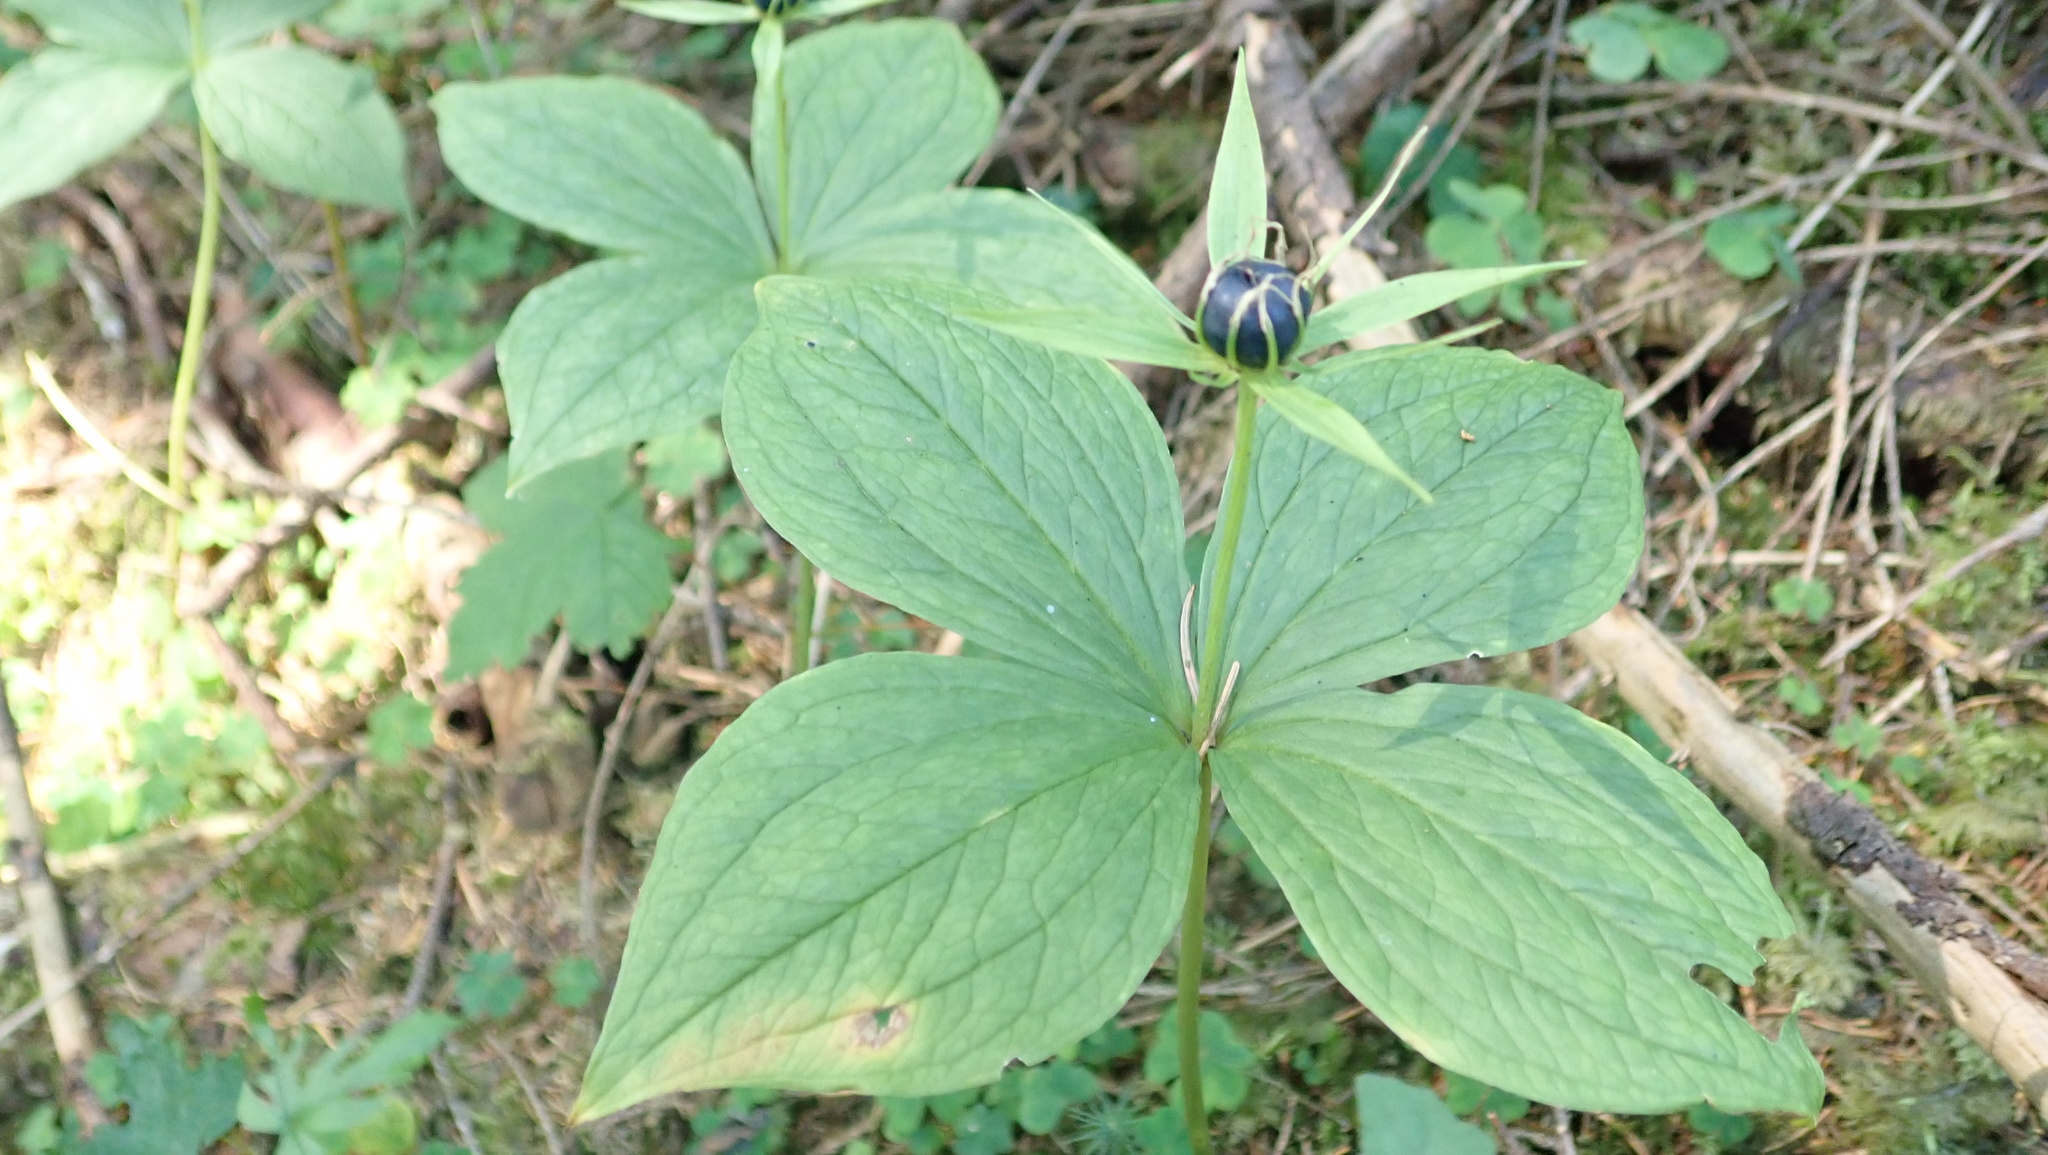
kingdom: Plantae
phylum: Tracheophyta
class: Liliopsida
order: Liliales
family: Melanthiaceae
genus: Paris
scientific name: Paris quadrifolia
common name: Herb-paris
